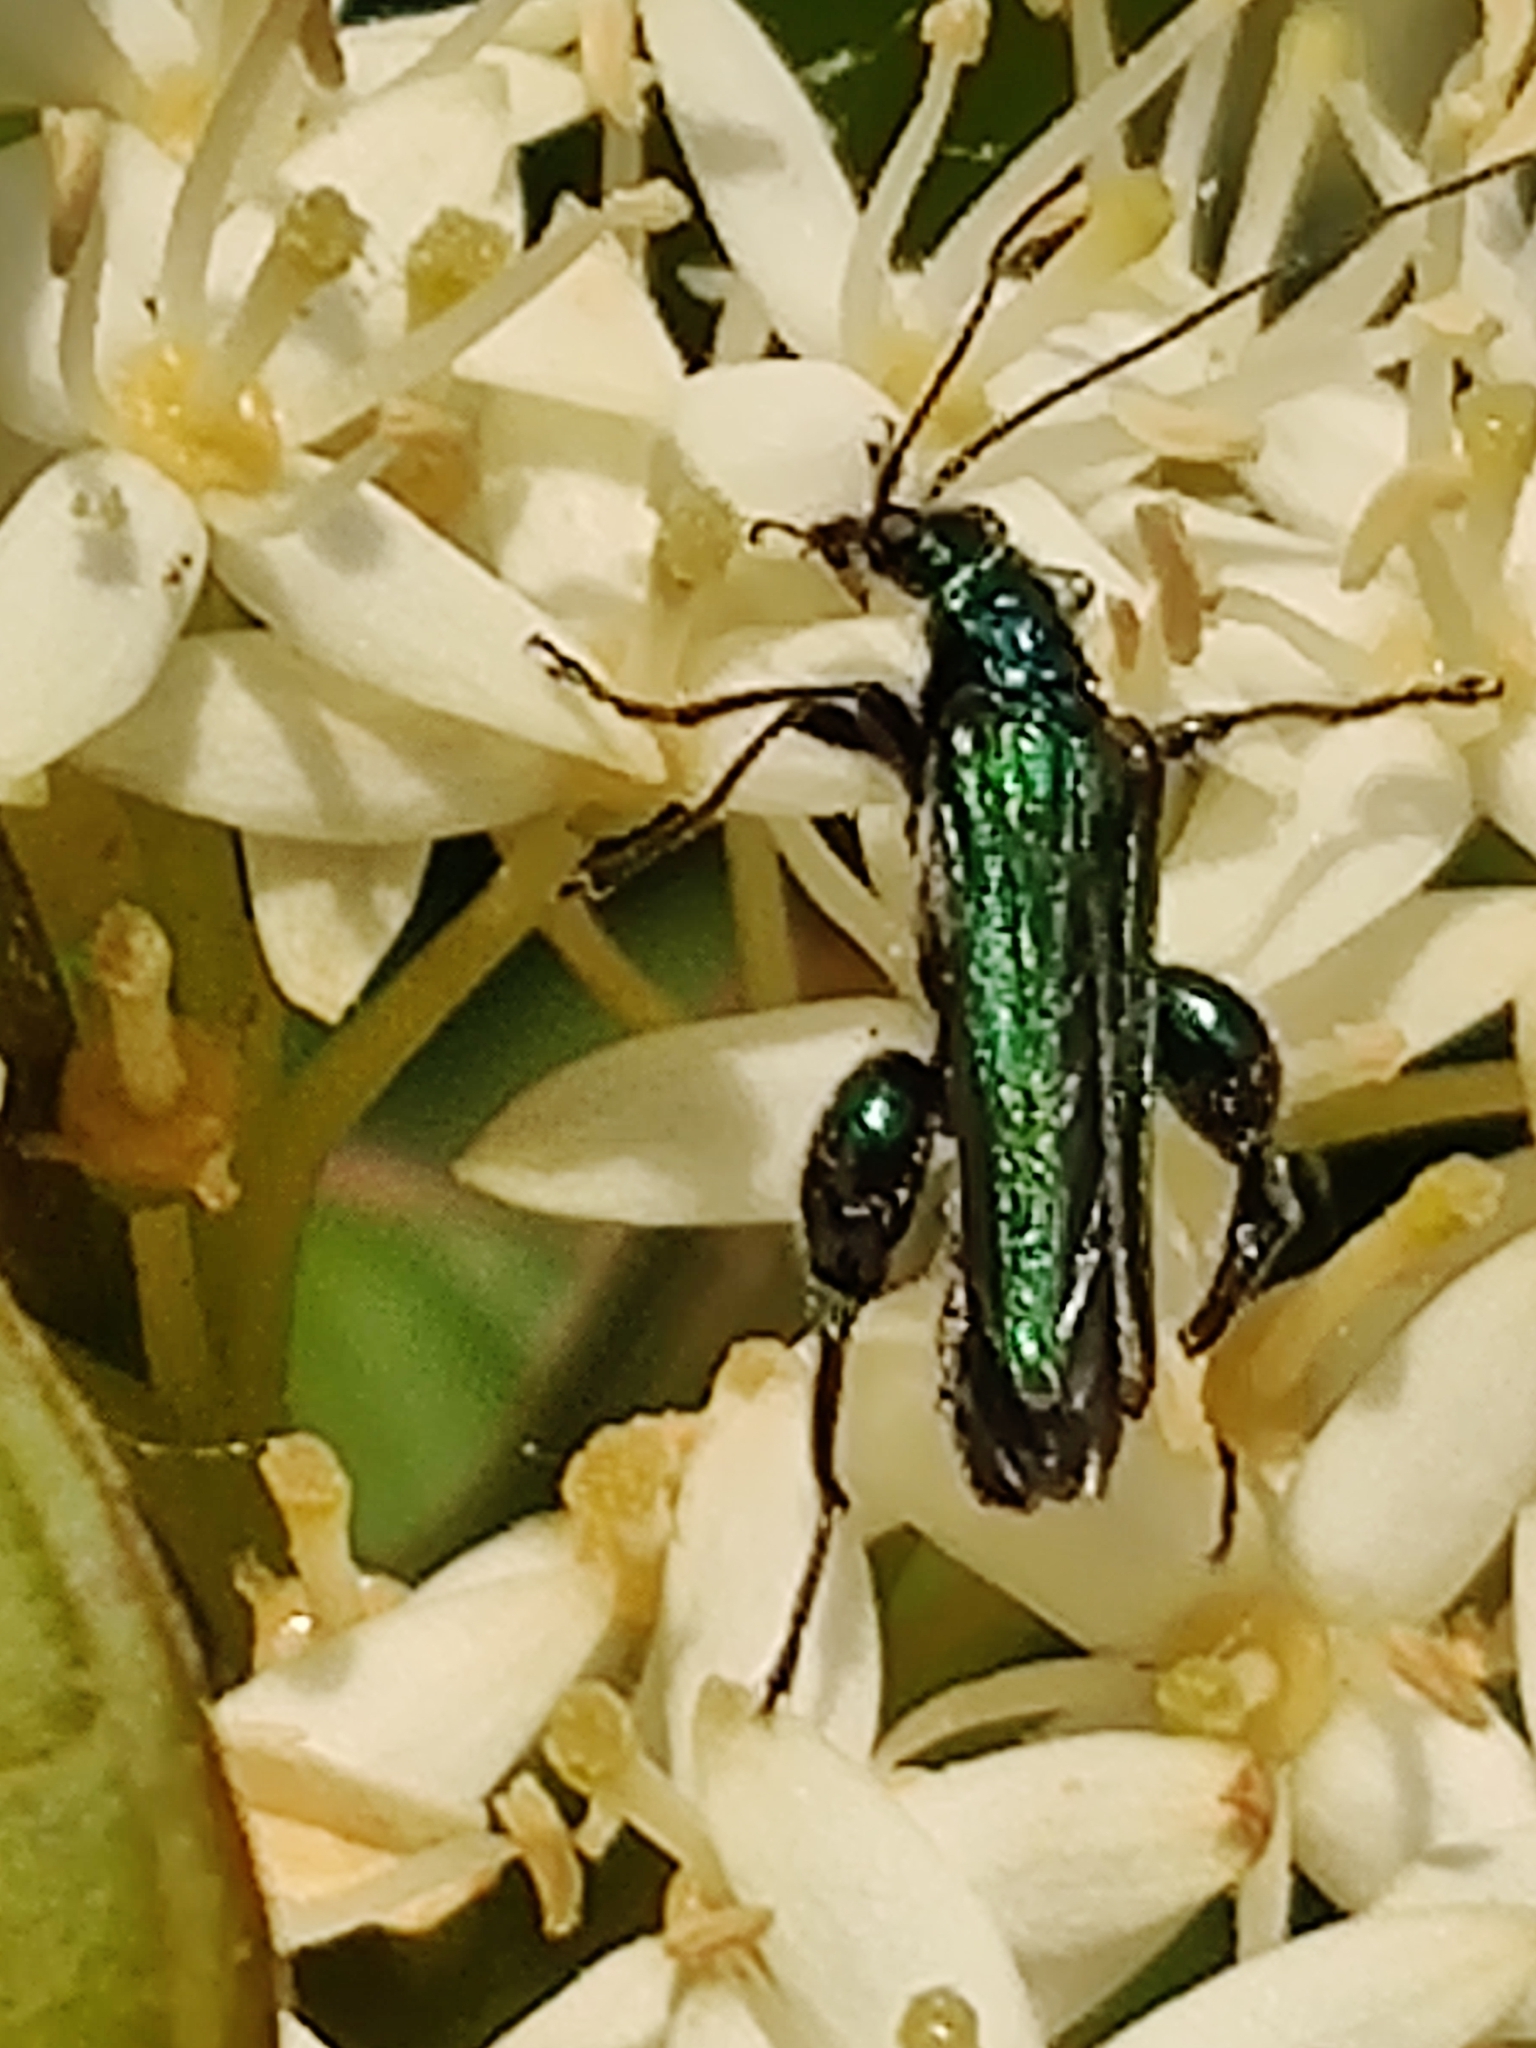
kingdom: Animalia
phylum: Arthropoda
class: Insecta
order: Coleoptera
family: Oedemeridae
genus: Oedemera
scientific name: Oedemera nobilis
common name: Swollen-thighed beetle
